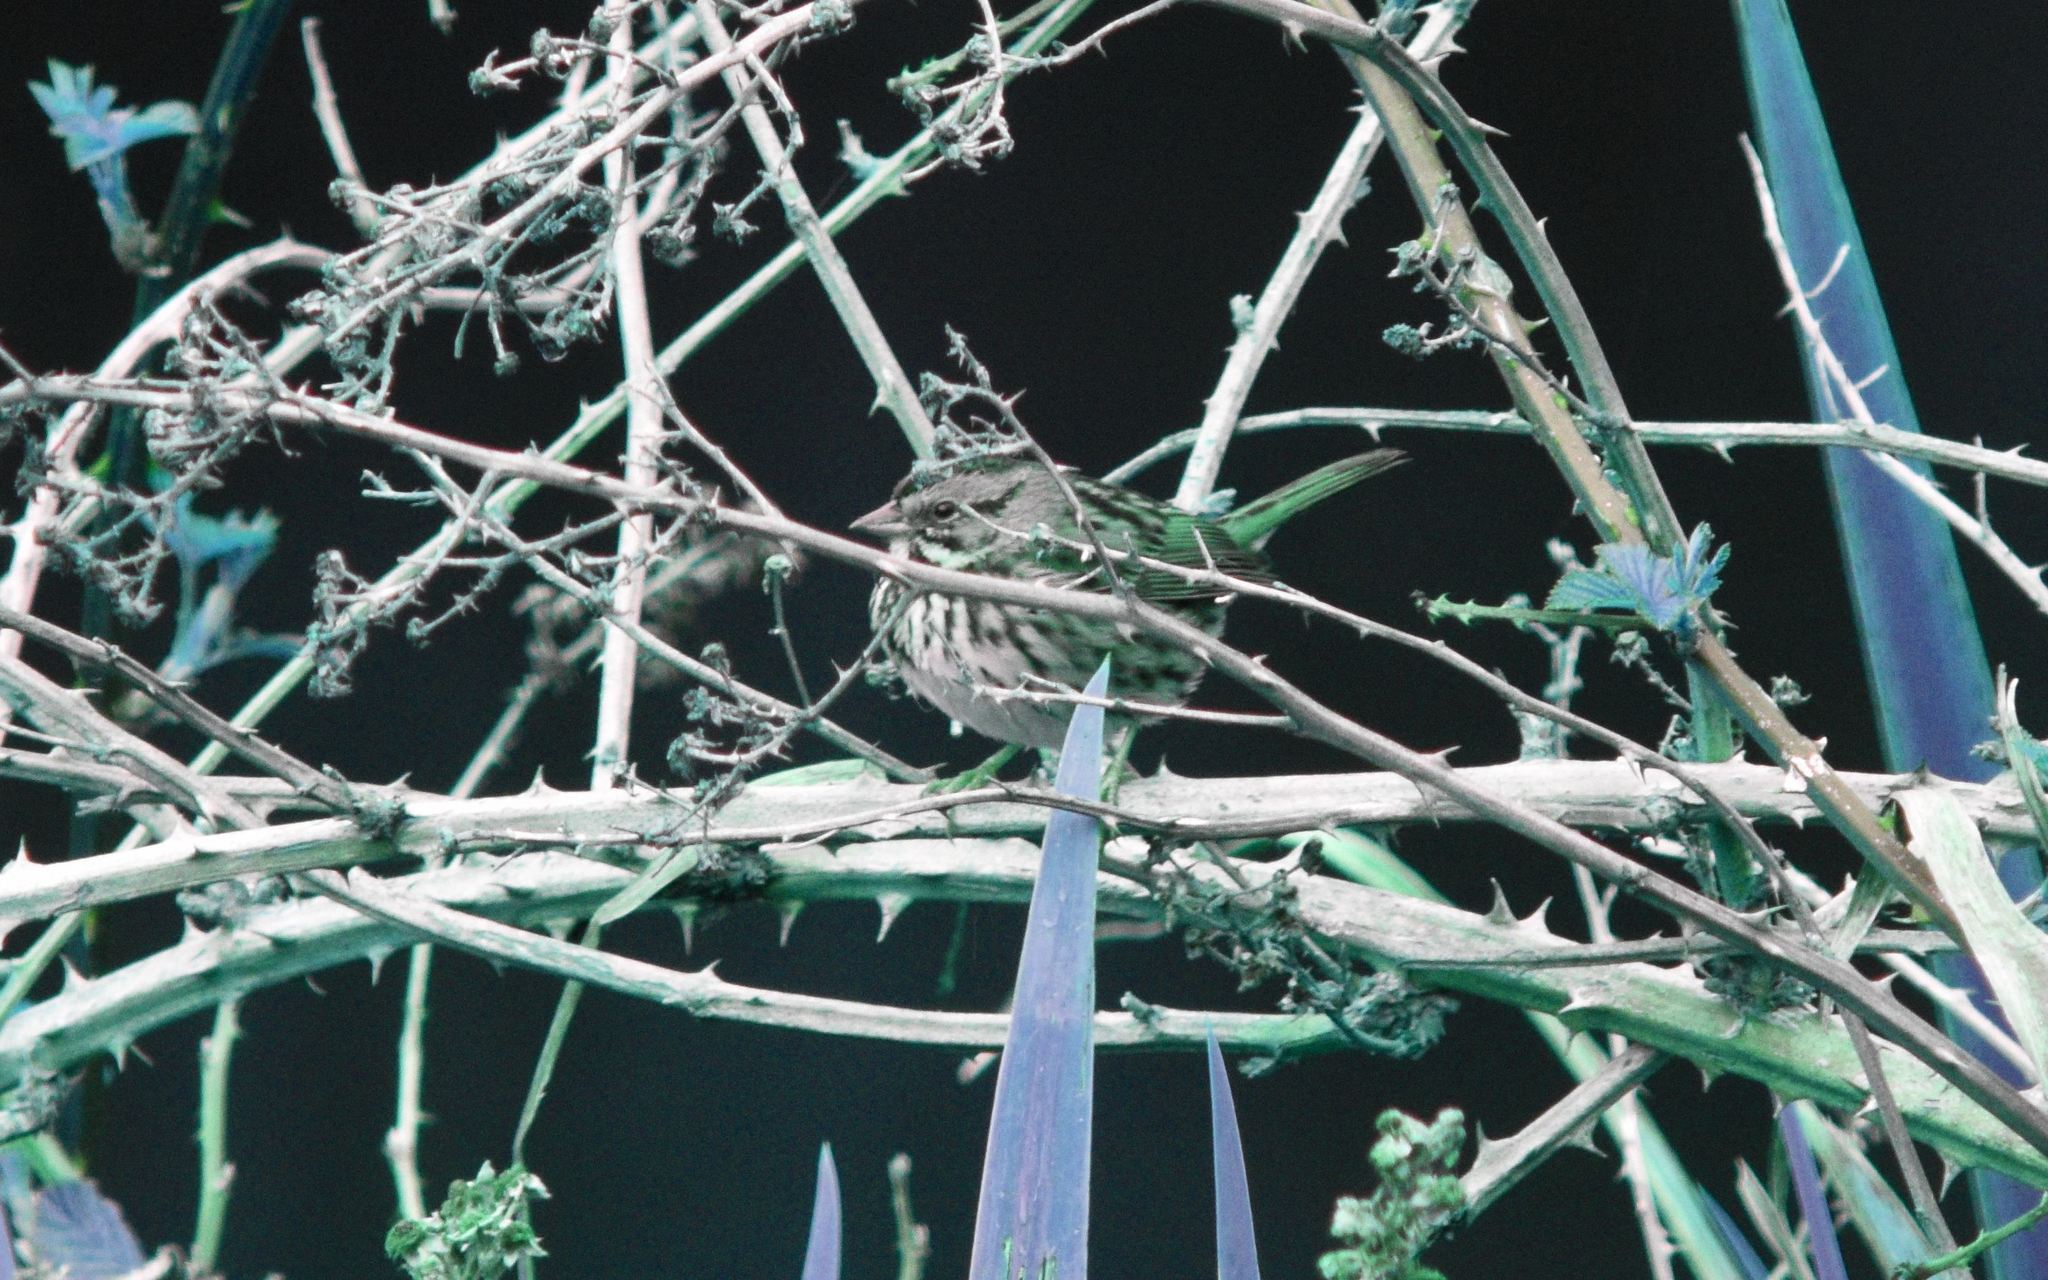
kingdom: Animalia
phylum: Chordata
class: Aves
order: Passeriformes
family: Passerellidae
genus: Melospiza
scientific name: Melospiza melodia
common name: Song sparrow
